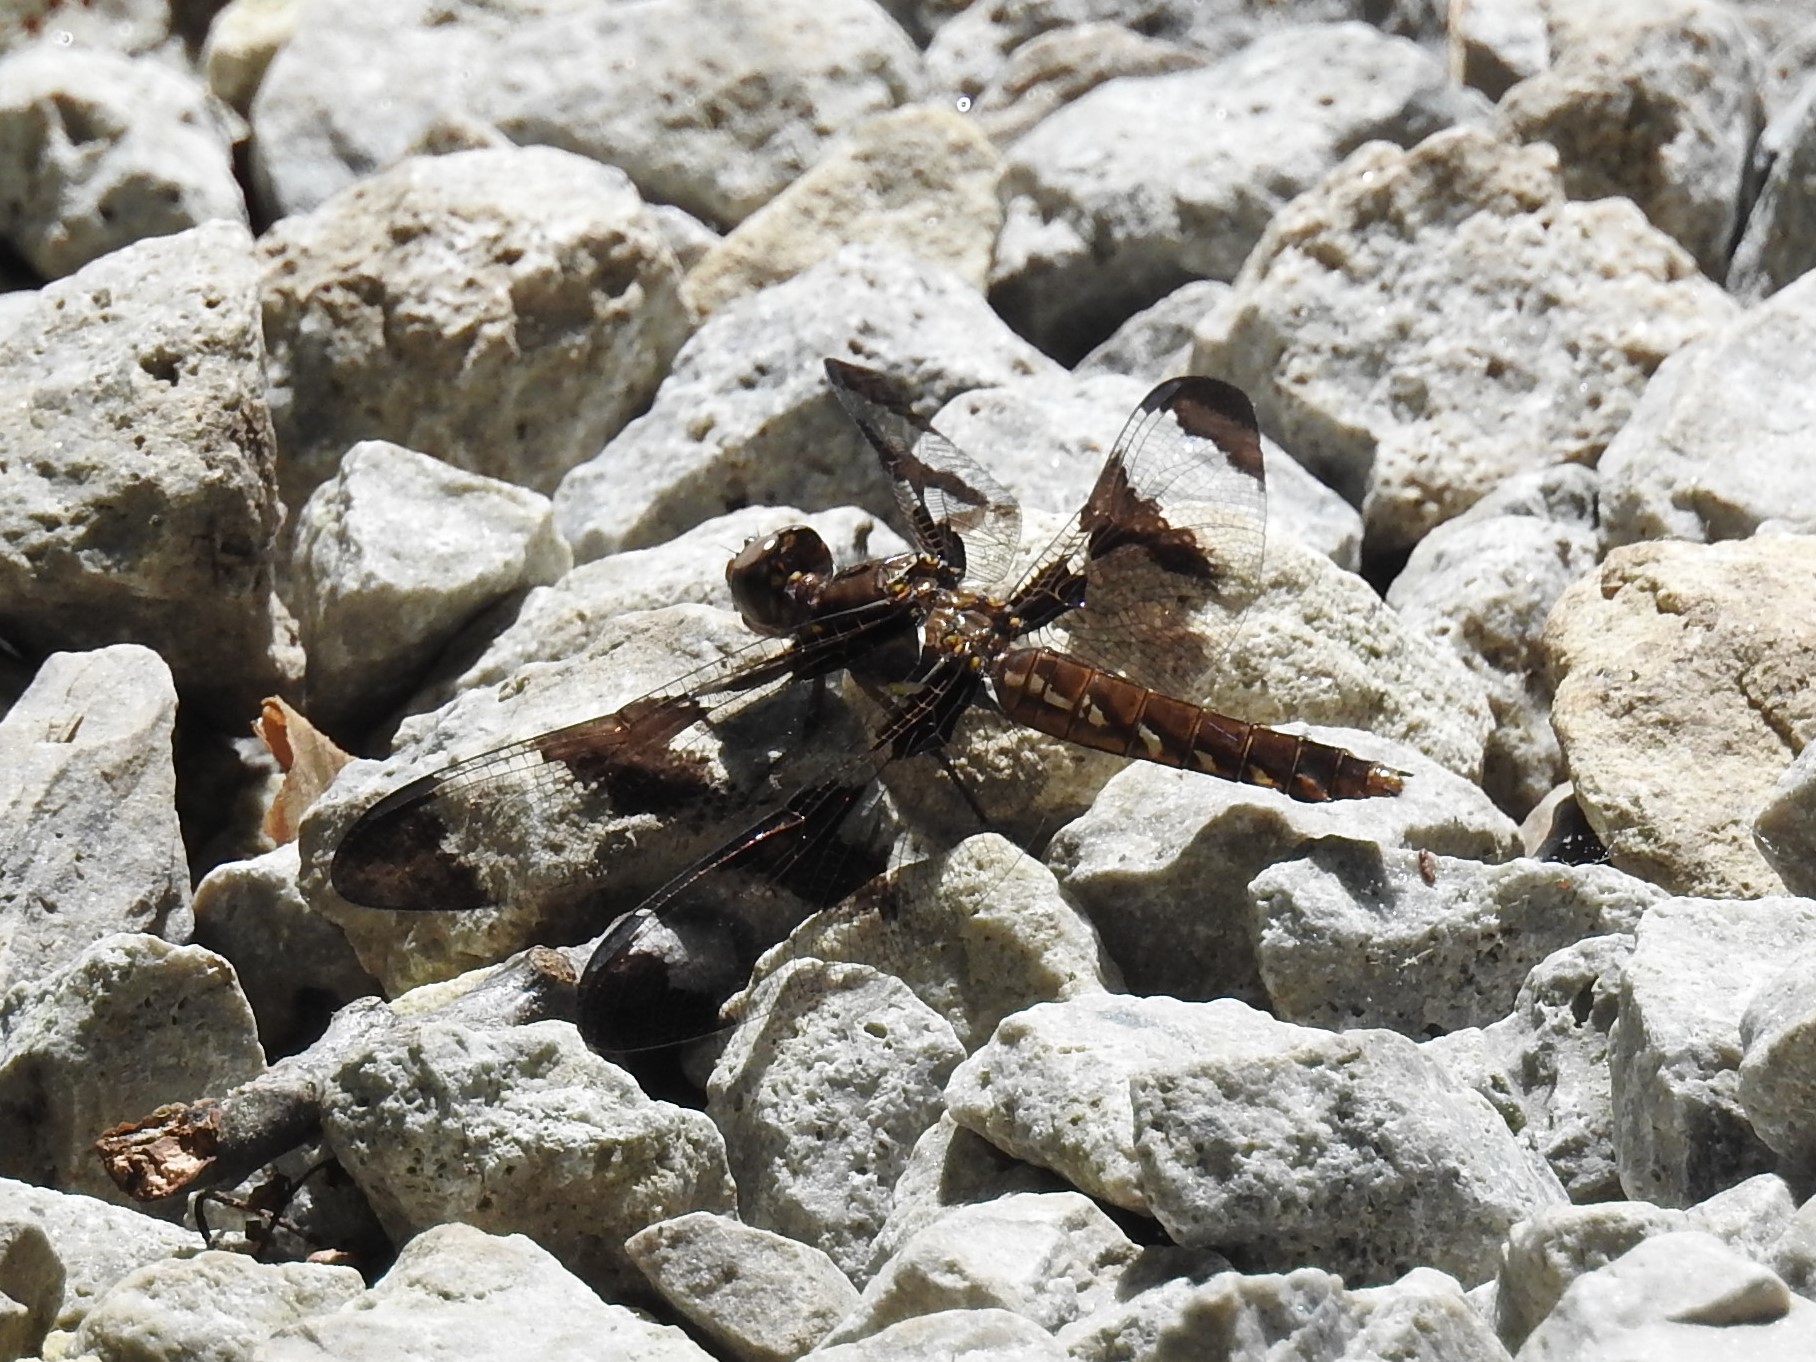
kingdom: Animalia
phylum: Arthropoda
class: Insecta
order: Odonata
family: Libellulidae
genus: Plathemis
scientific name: Plathemis lydia
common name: Common whitetail
